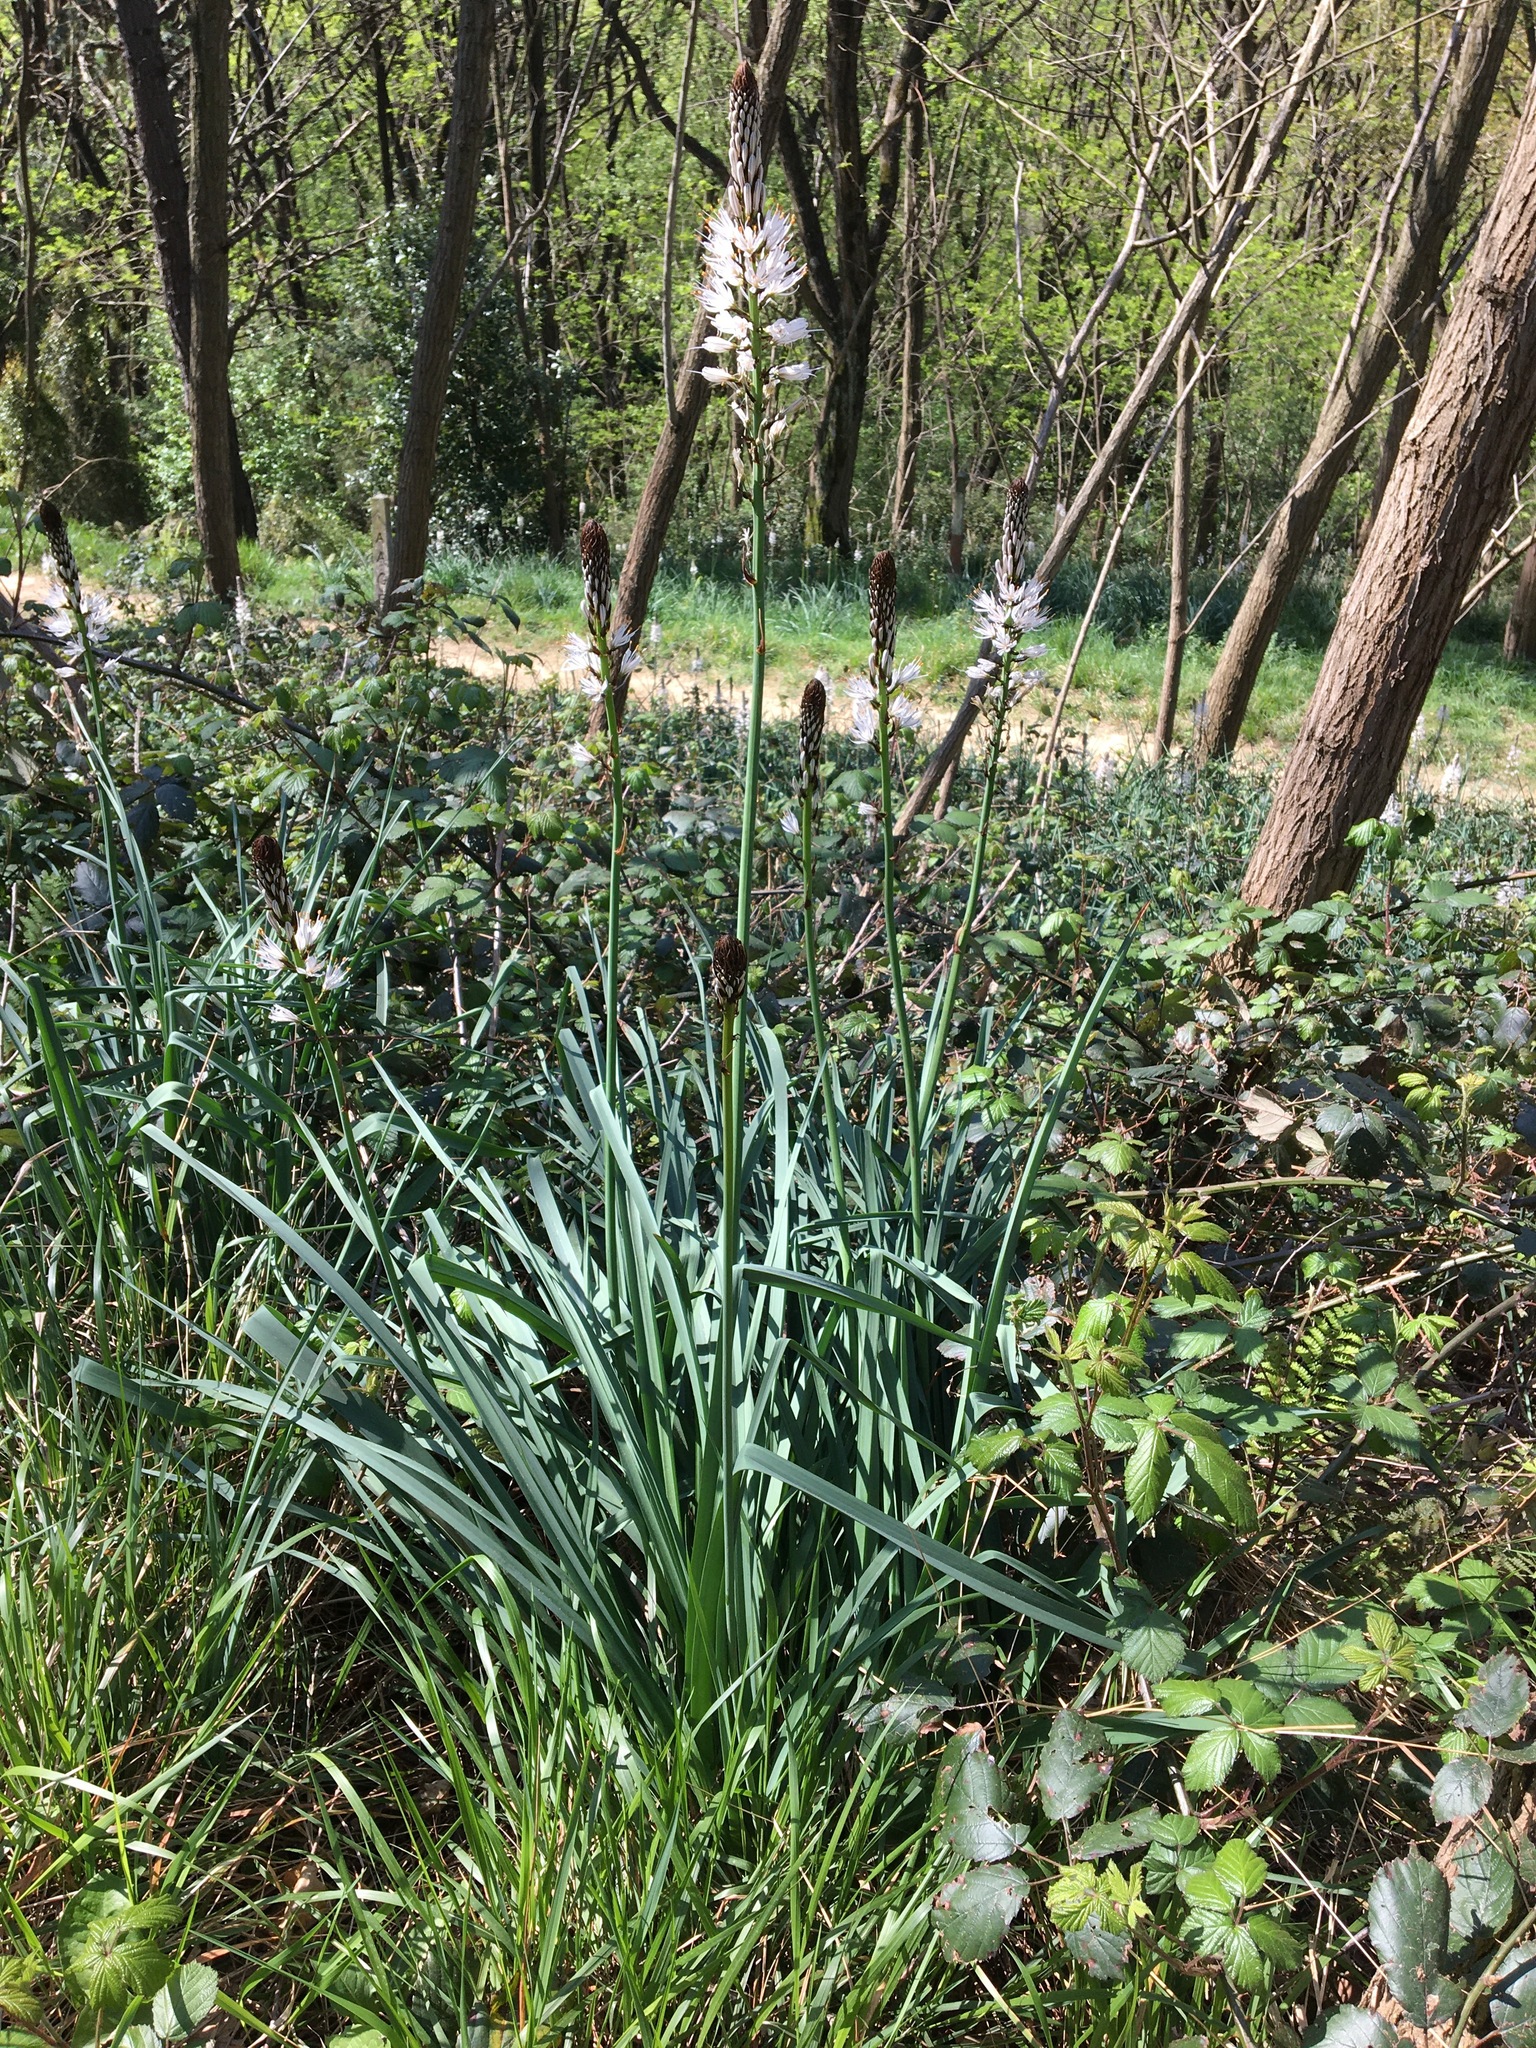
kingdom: Plantae
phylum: Tracheophyta
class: Liliopsida
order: Asparagales
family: Asphodelaceae
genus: Asphodelus
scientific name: Asphodelus albus
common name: White asphodel
